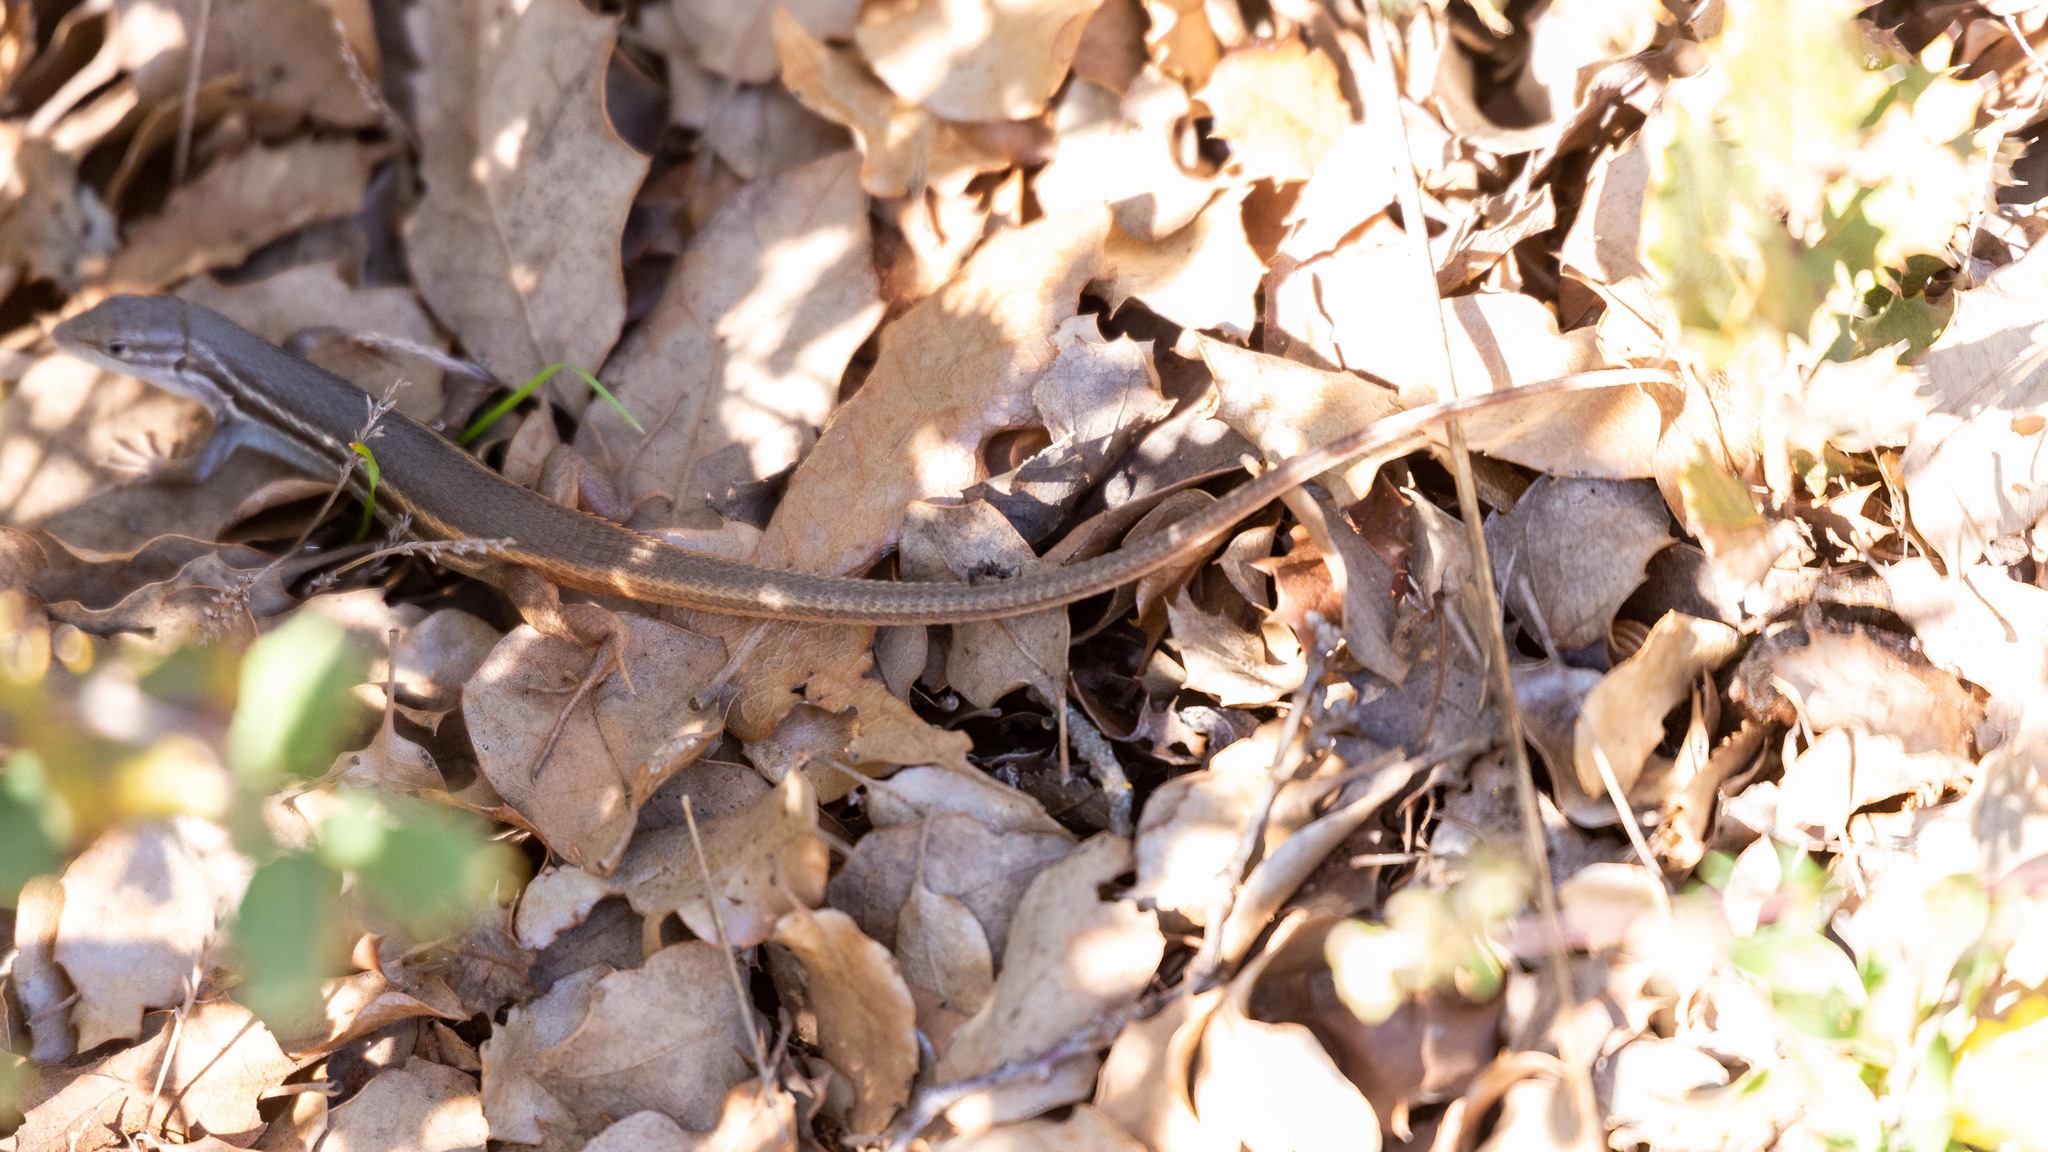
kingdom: Animalia
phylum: Chordata
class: Squamata
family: Lacertidae
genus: Psammodromus
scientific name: Psammodromus algirus
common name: Algerian psammodromus
